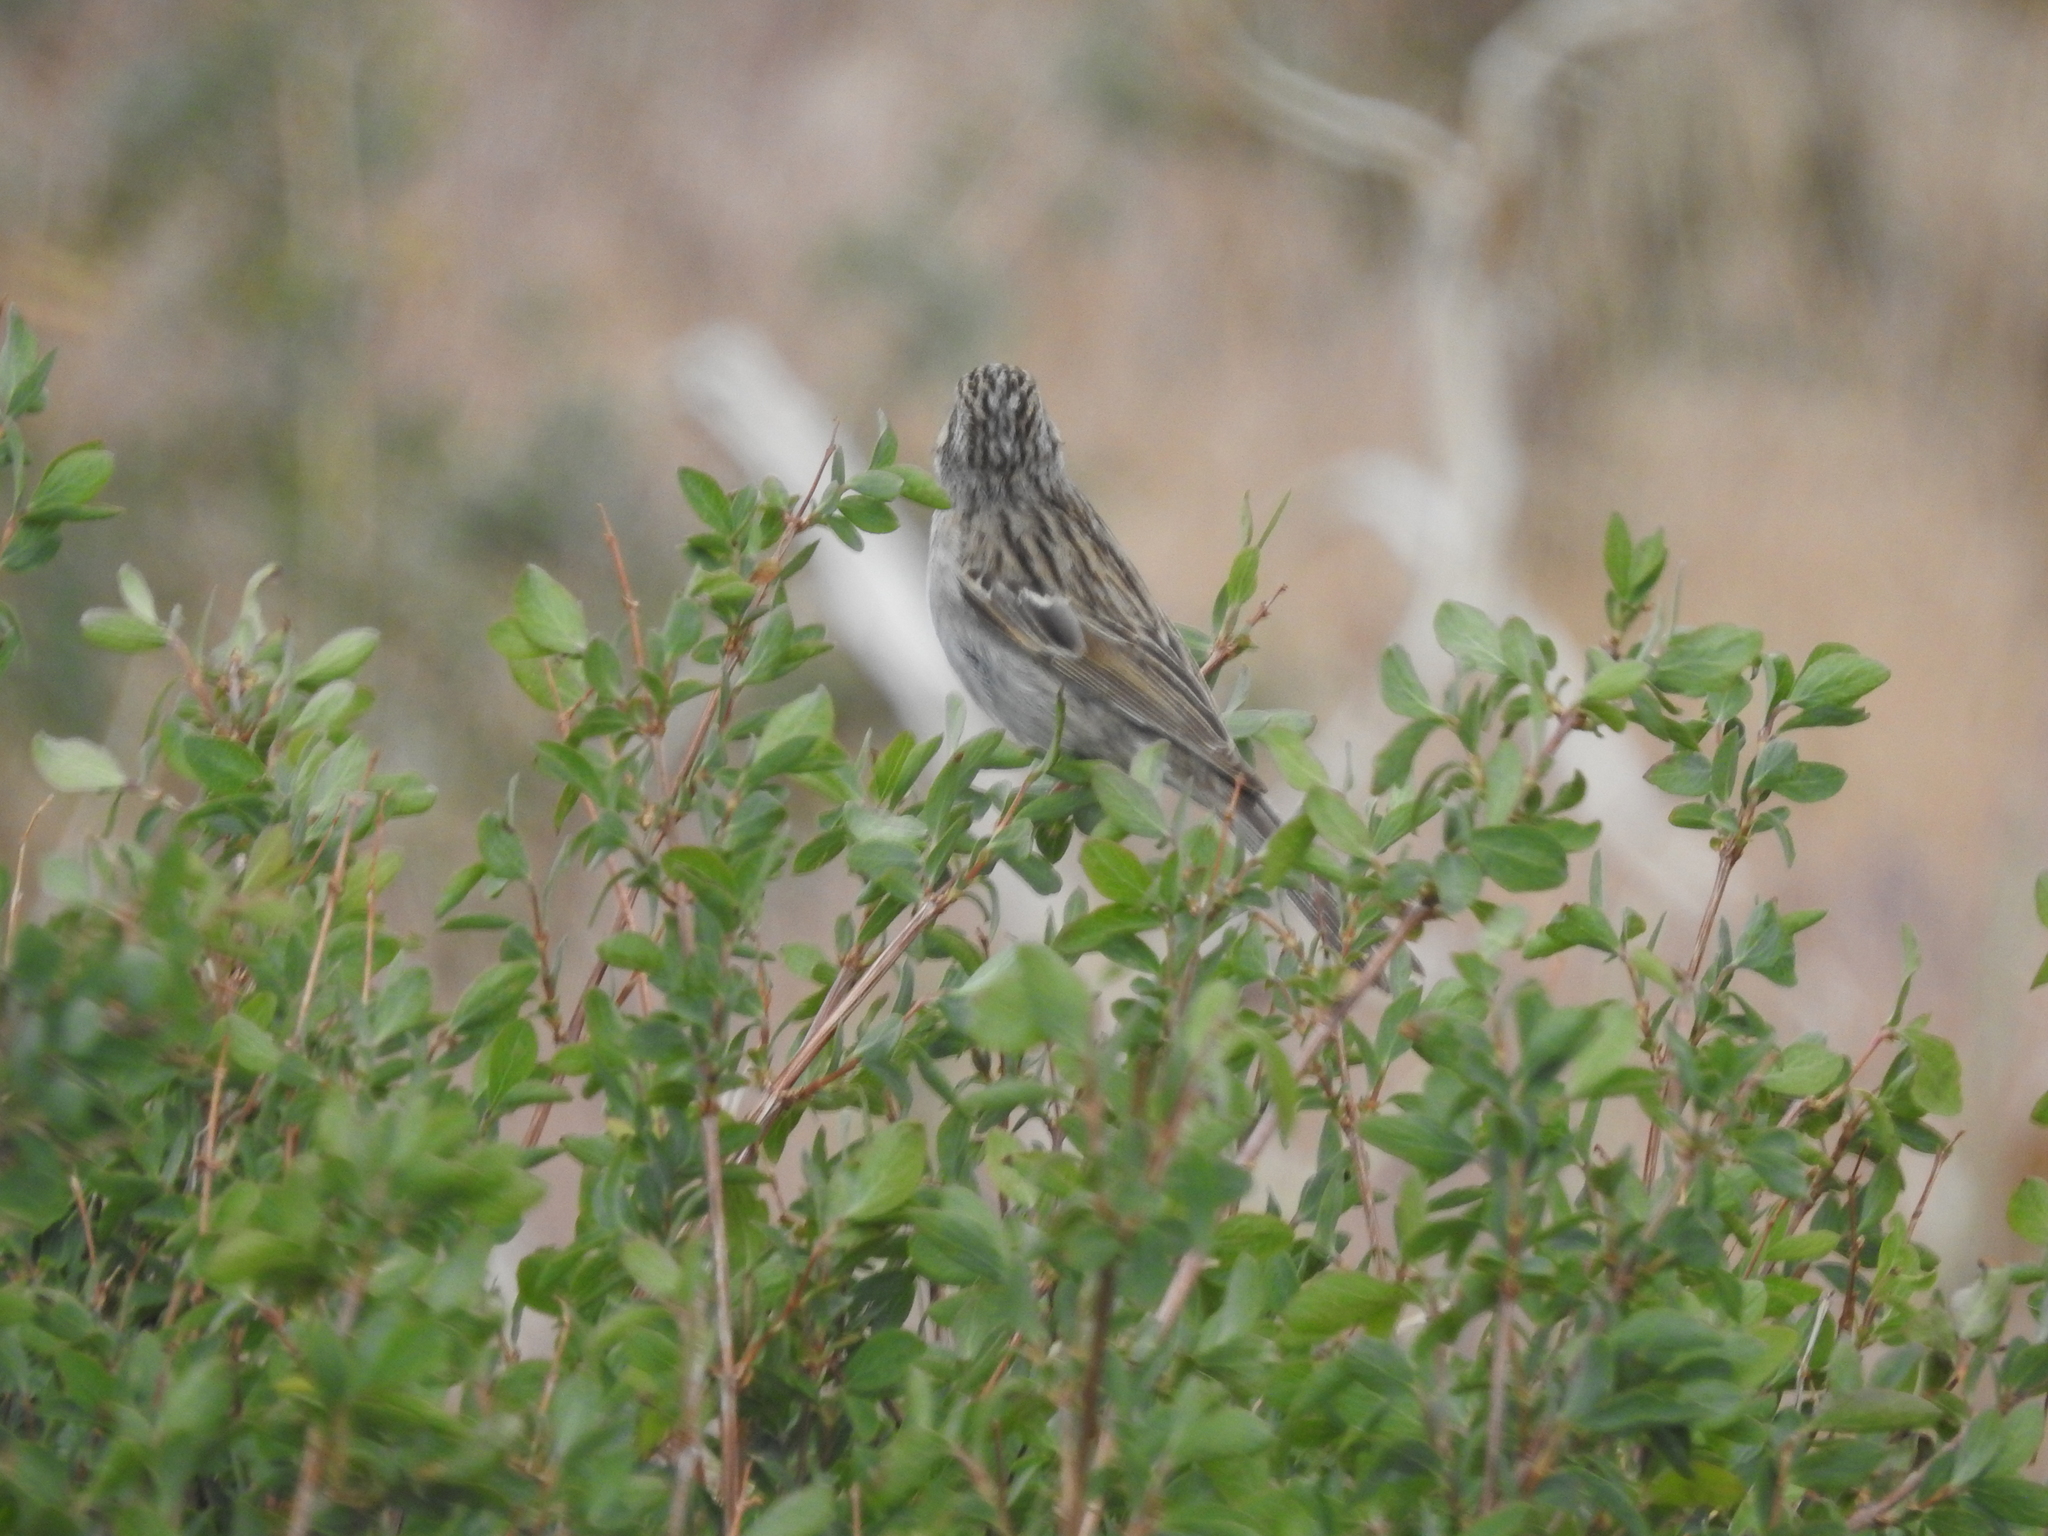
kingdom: Animalia
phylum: Chordata
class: Aves
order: Passeriformes
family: Passerellidae
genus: Spizella
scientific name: Spizella breweri
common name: Brewer's sparrow
